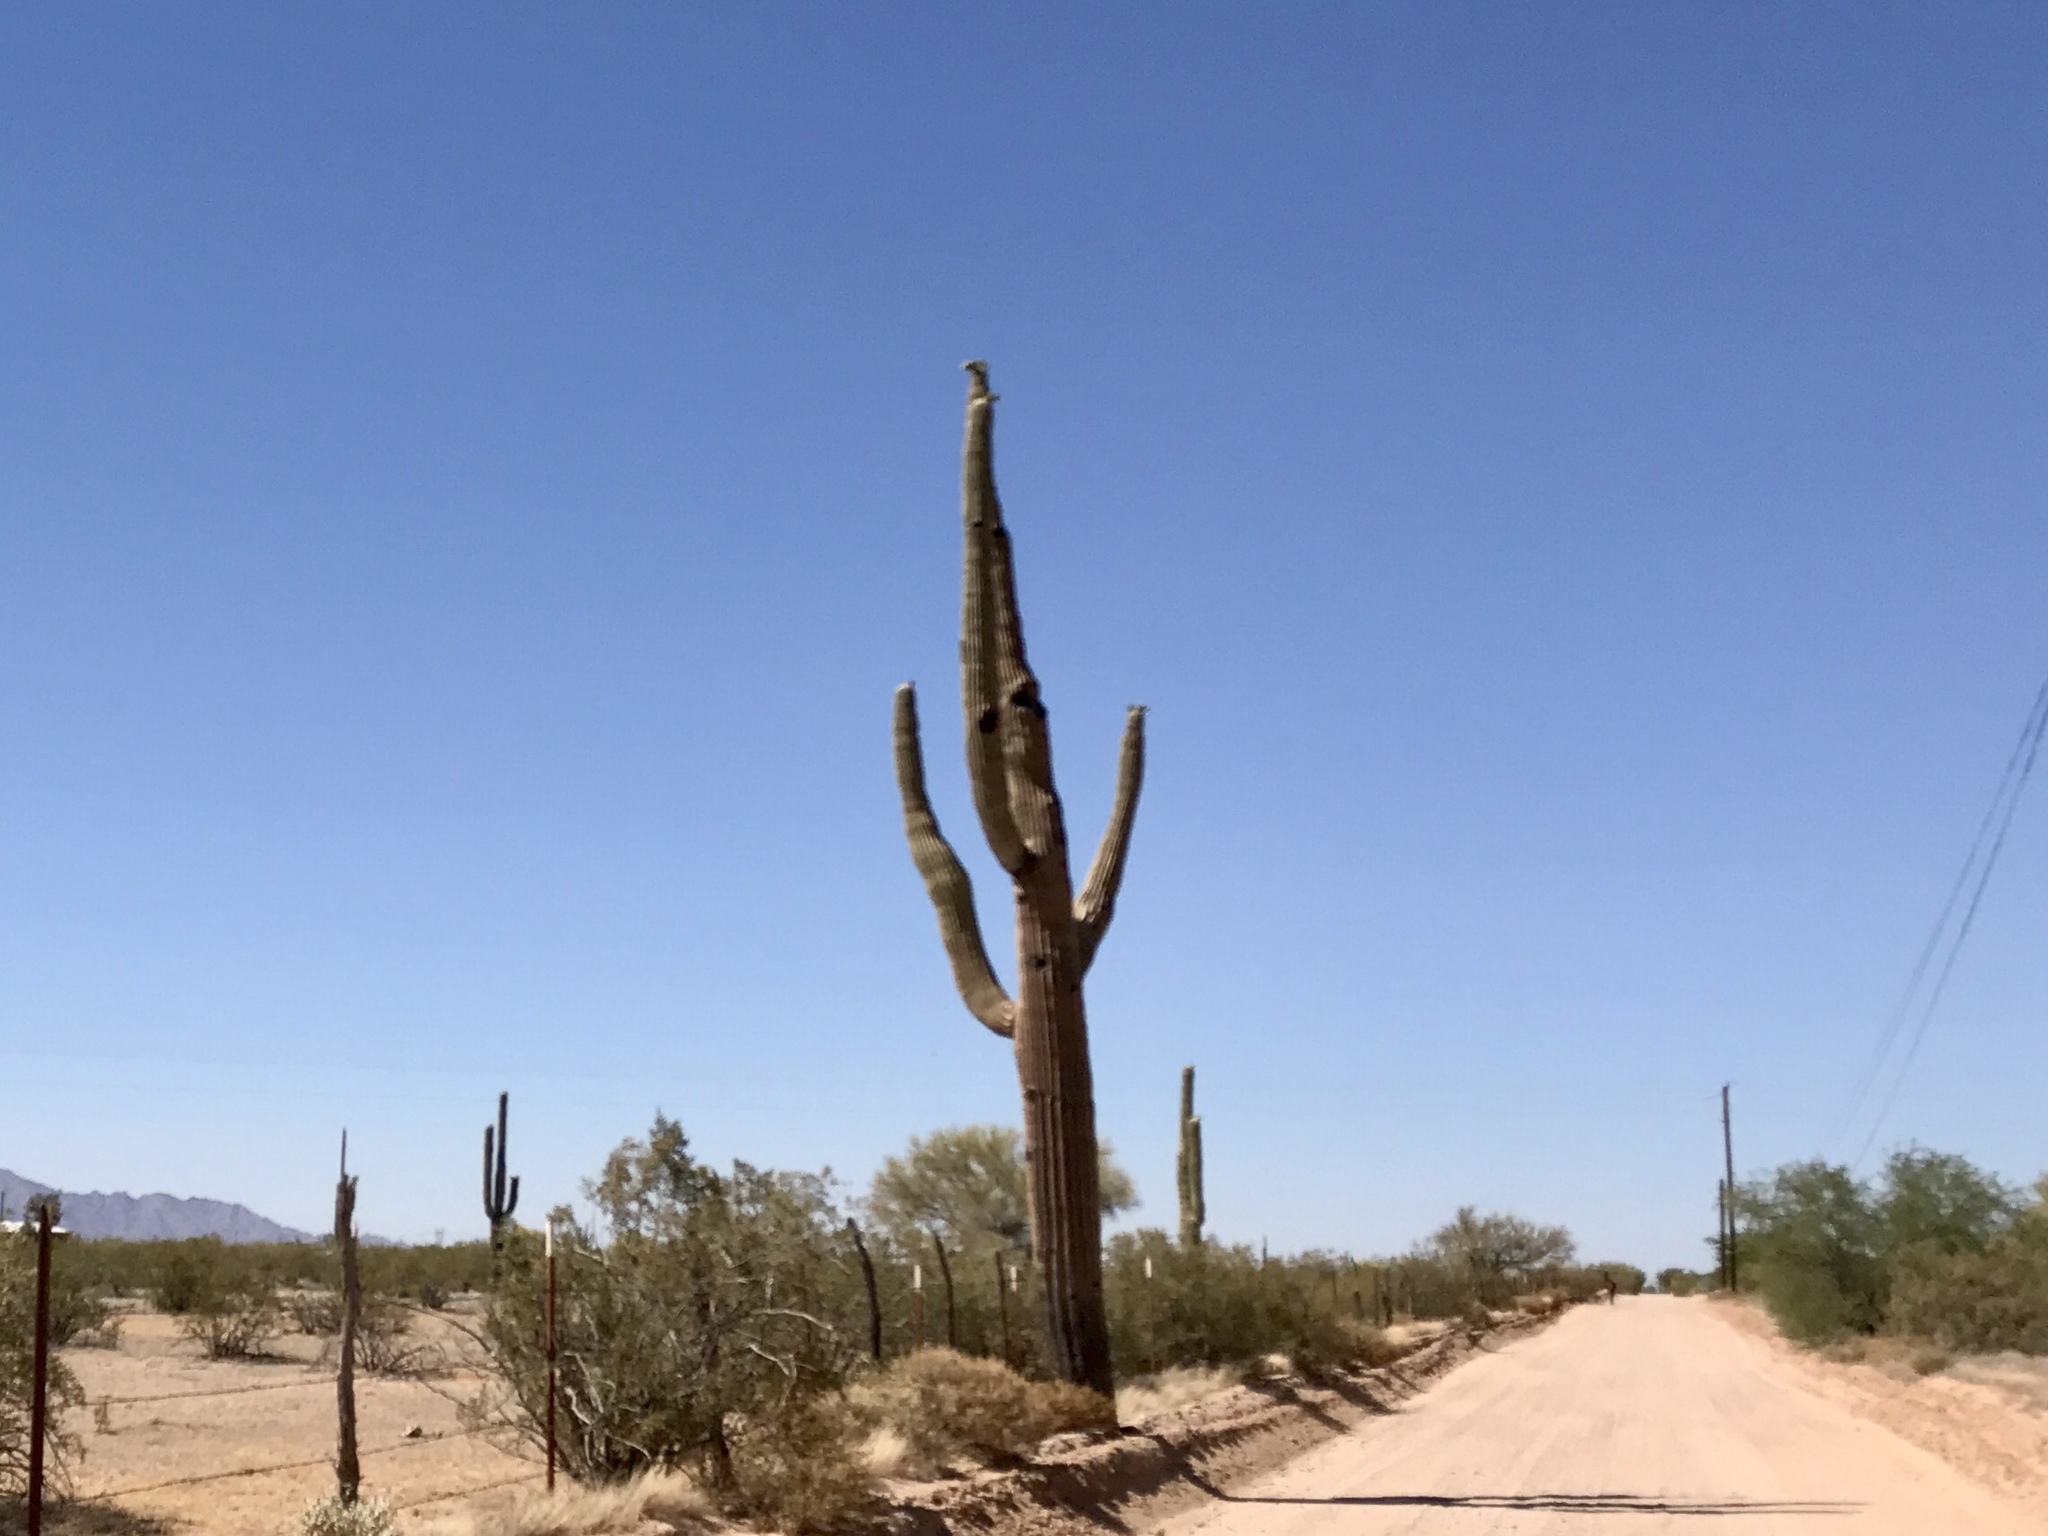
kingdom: Plantae
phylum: Tracheophyta
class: Magnoliopsida
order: Caryophyllales
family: Cactaceae
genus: Carnegiea
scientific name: Carnegiea gigantea
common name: Saguaro
